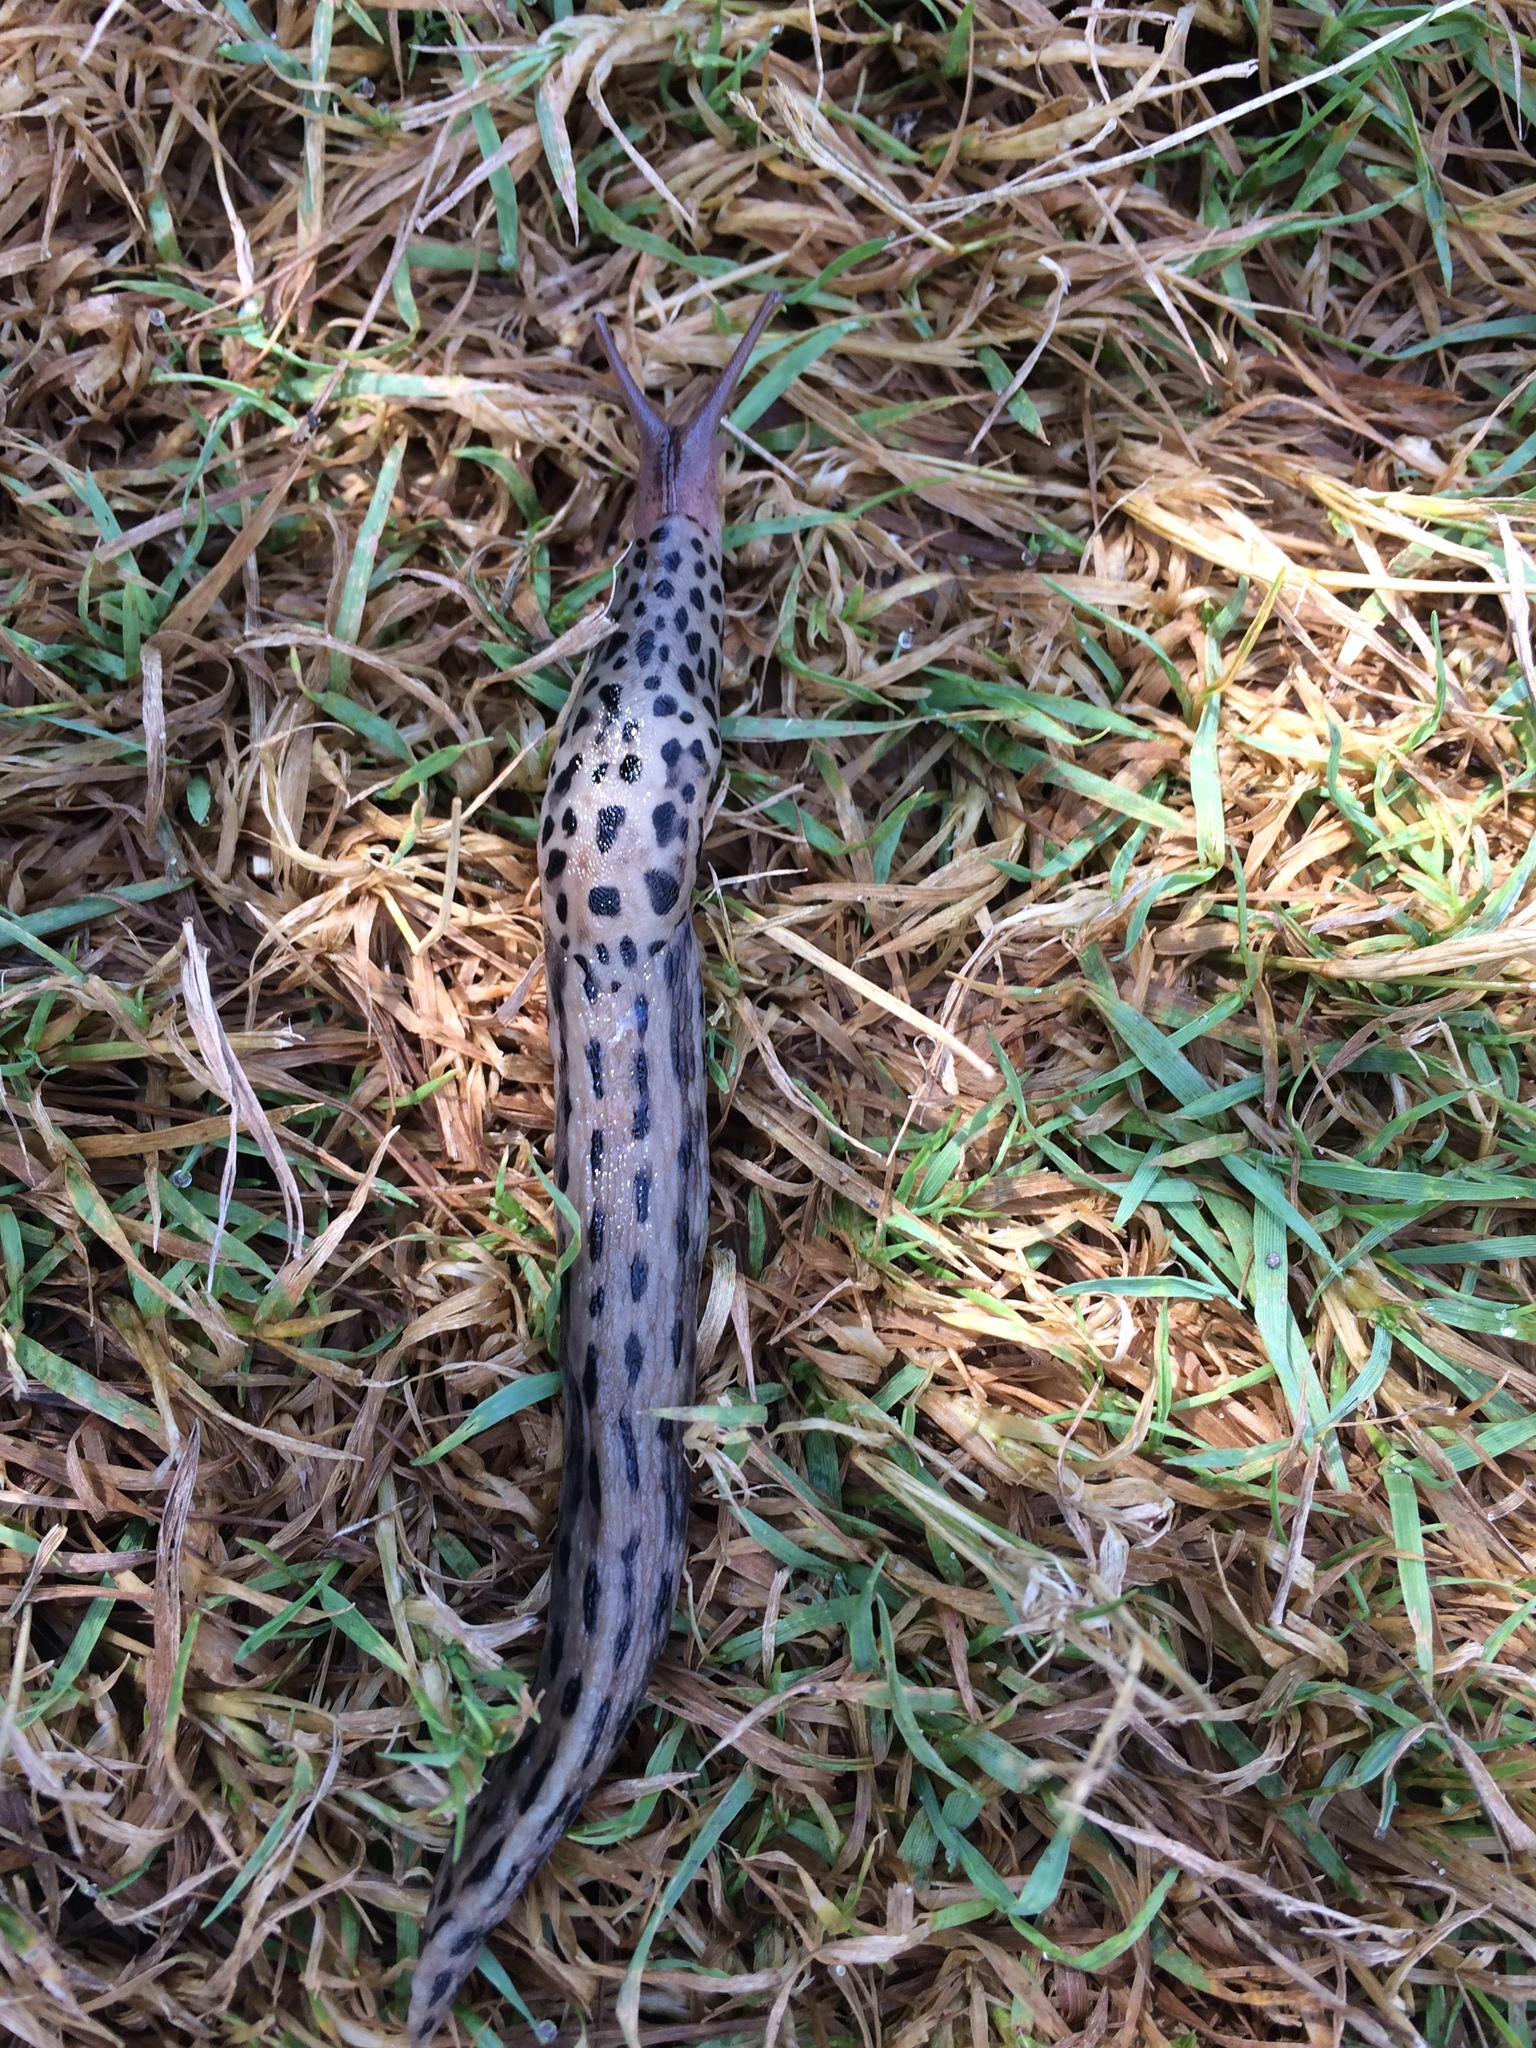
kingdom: Animalia
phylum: Mollusca
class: Gastropoda
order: Stylommatophora
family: Limacidae
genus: Limax
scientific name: Limax maximus
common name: Great grey slug
